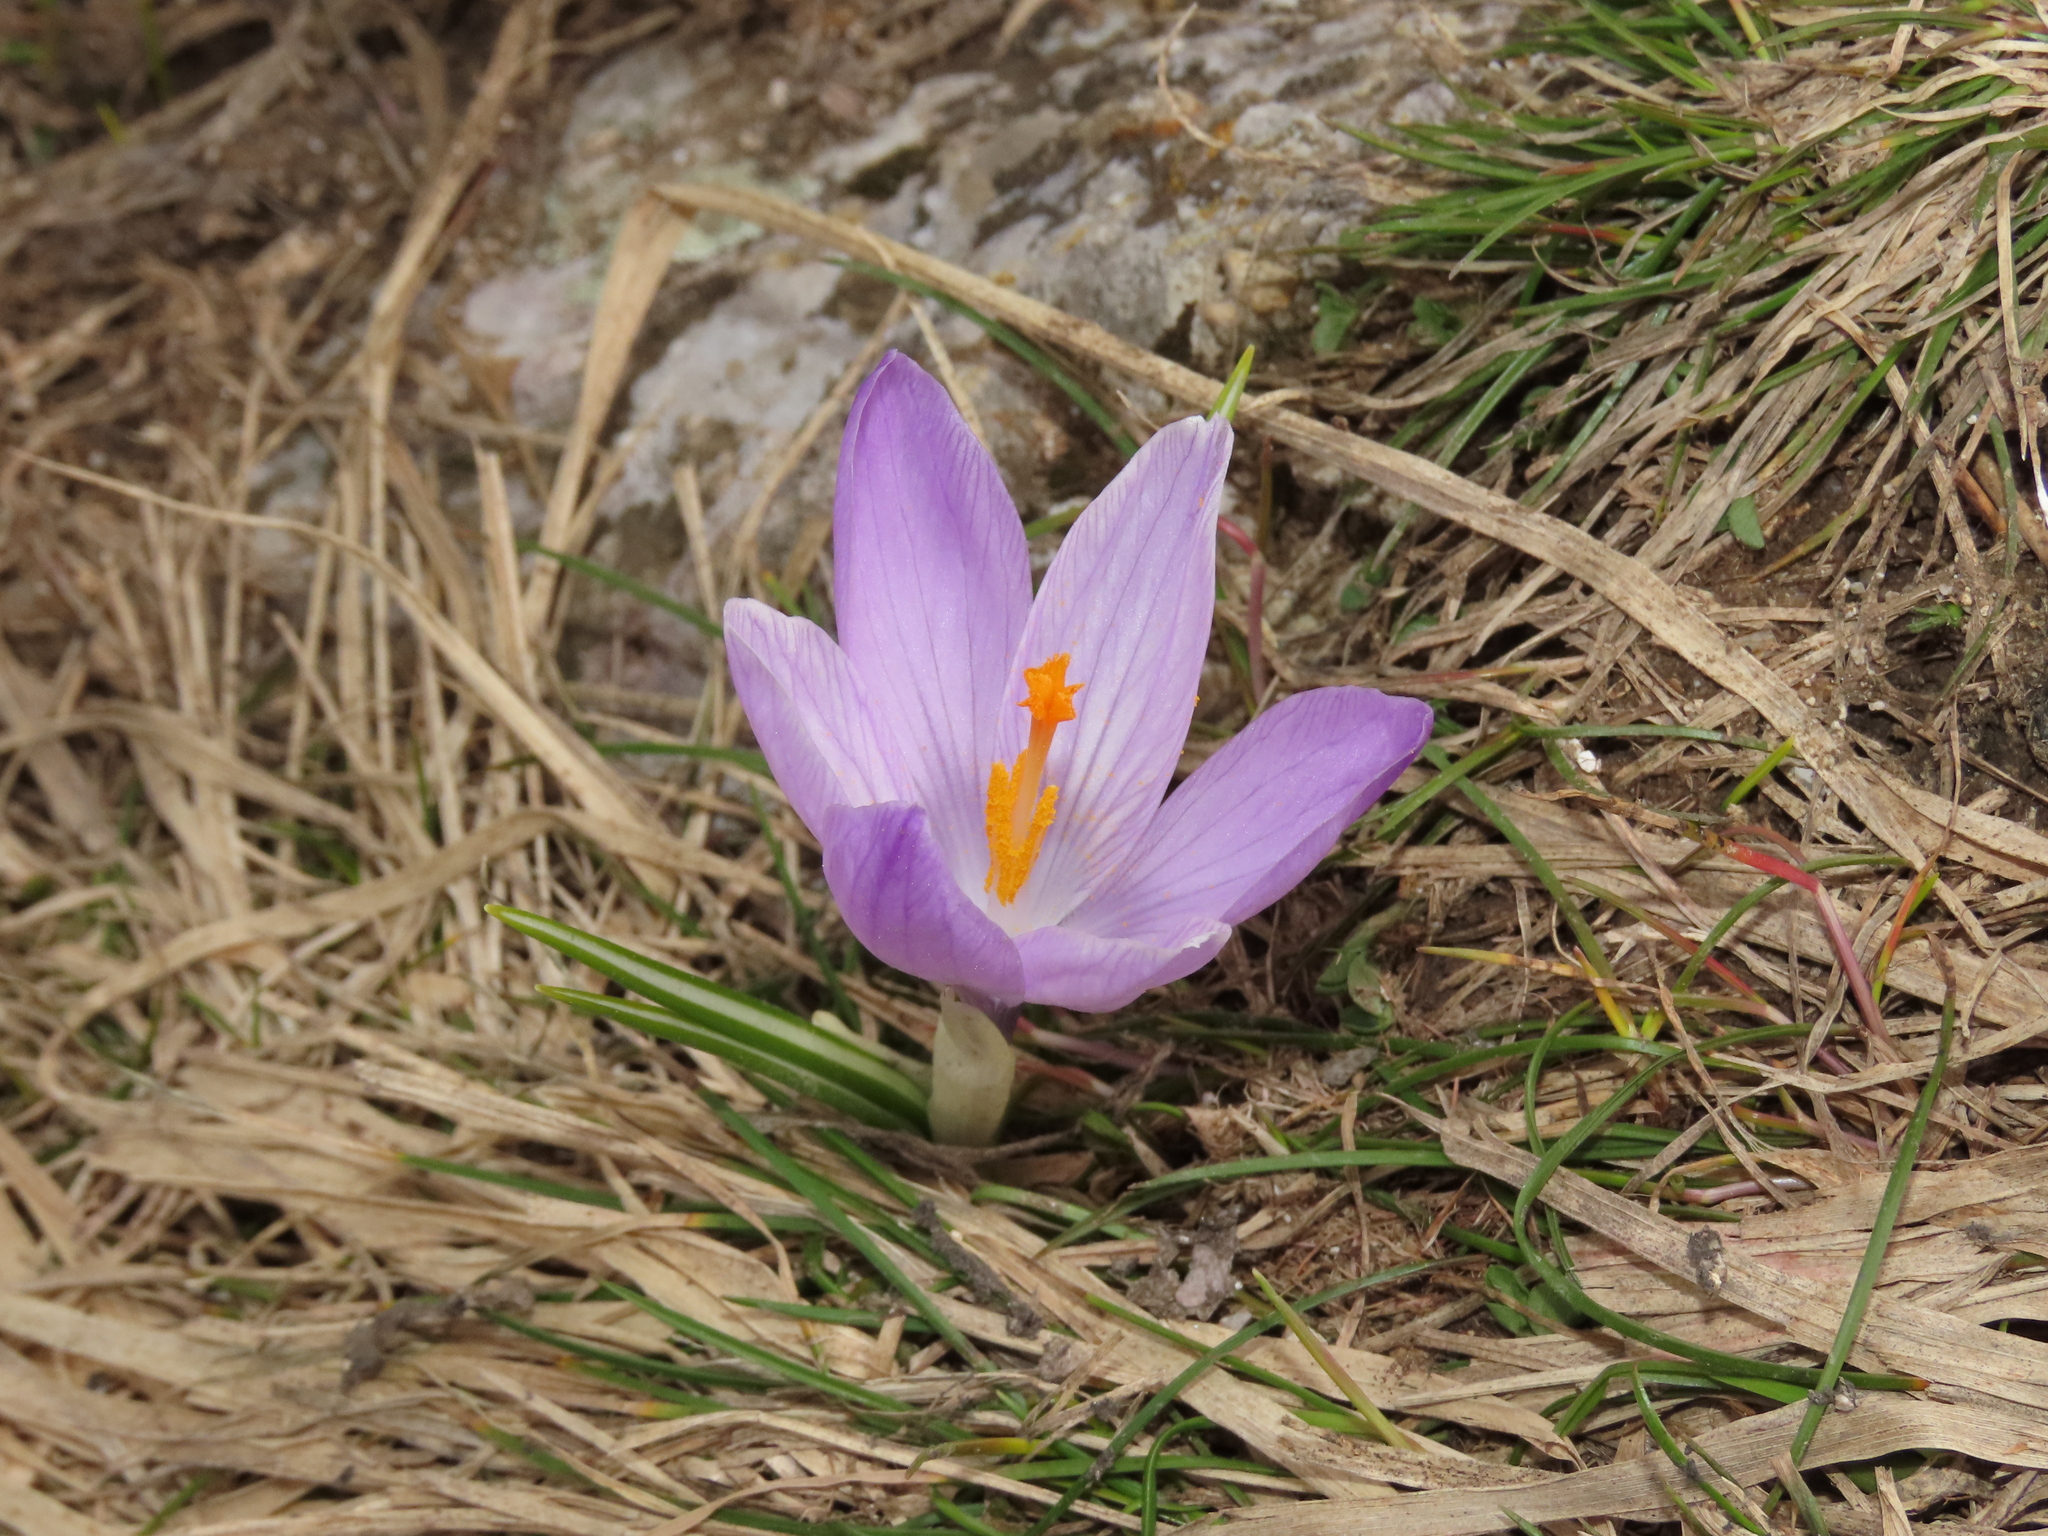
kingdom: Plantae
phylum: Tracheophyta
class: Liliopsida
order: Asparagales
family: Iridaceae
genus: Crocus
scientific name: Crocus neapolitanus
